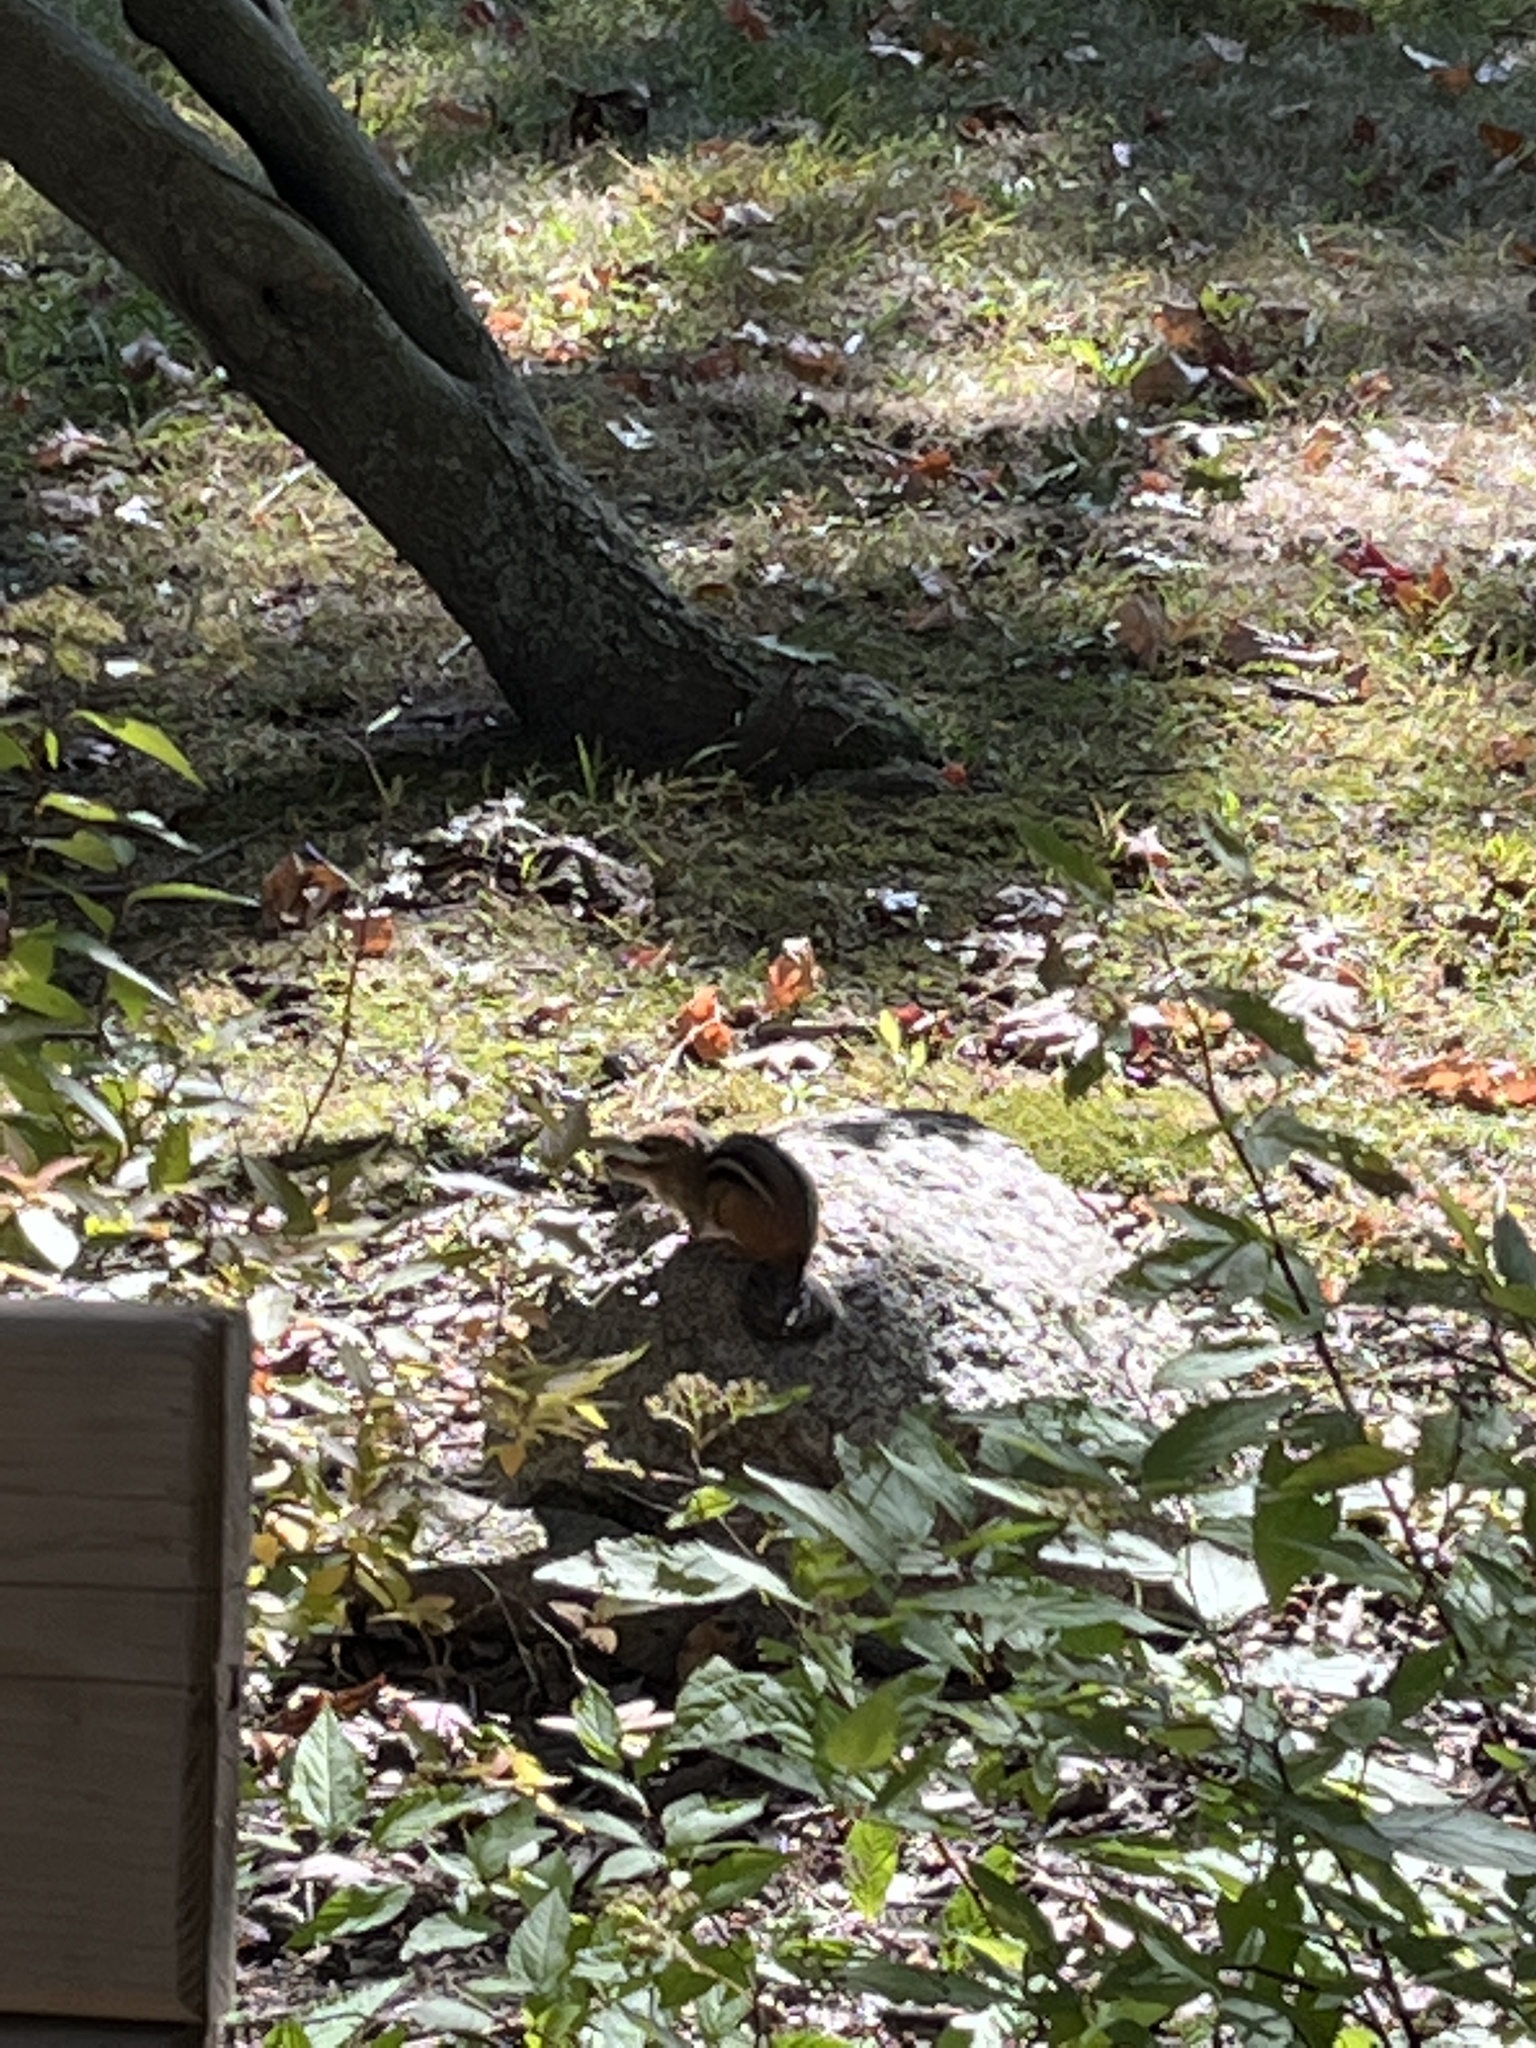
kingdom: Animalia
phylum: Chordata
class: Mammalia
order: Rodentia
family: Sciuridae
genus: Tamias
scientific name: Tamias striatus
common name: Eastern chipmunk
